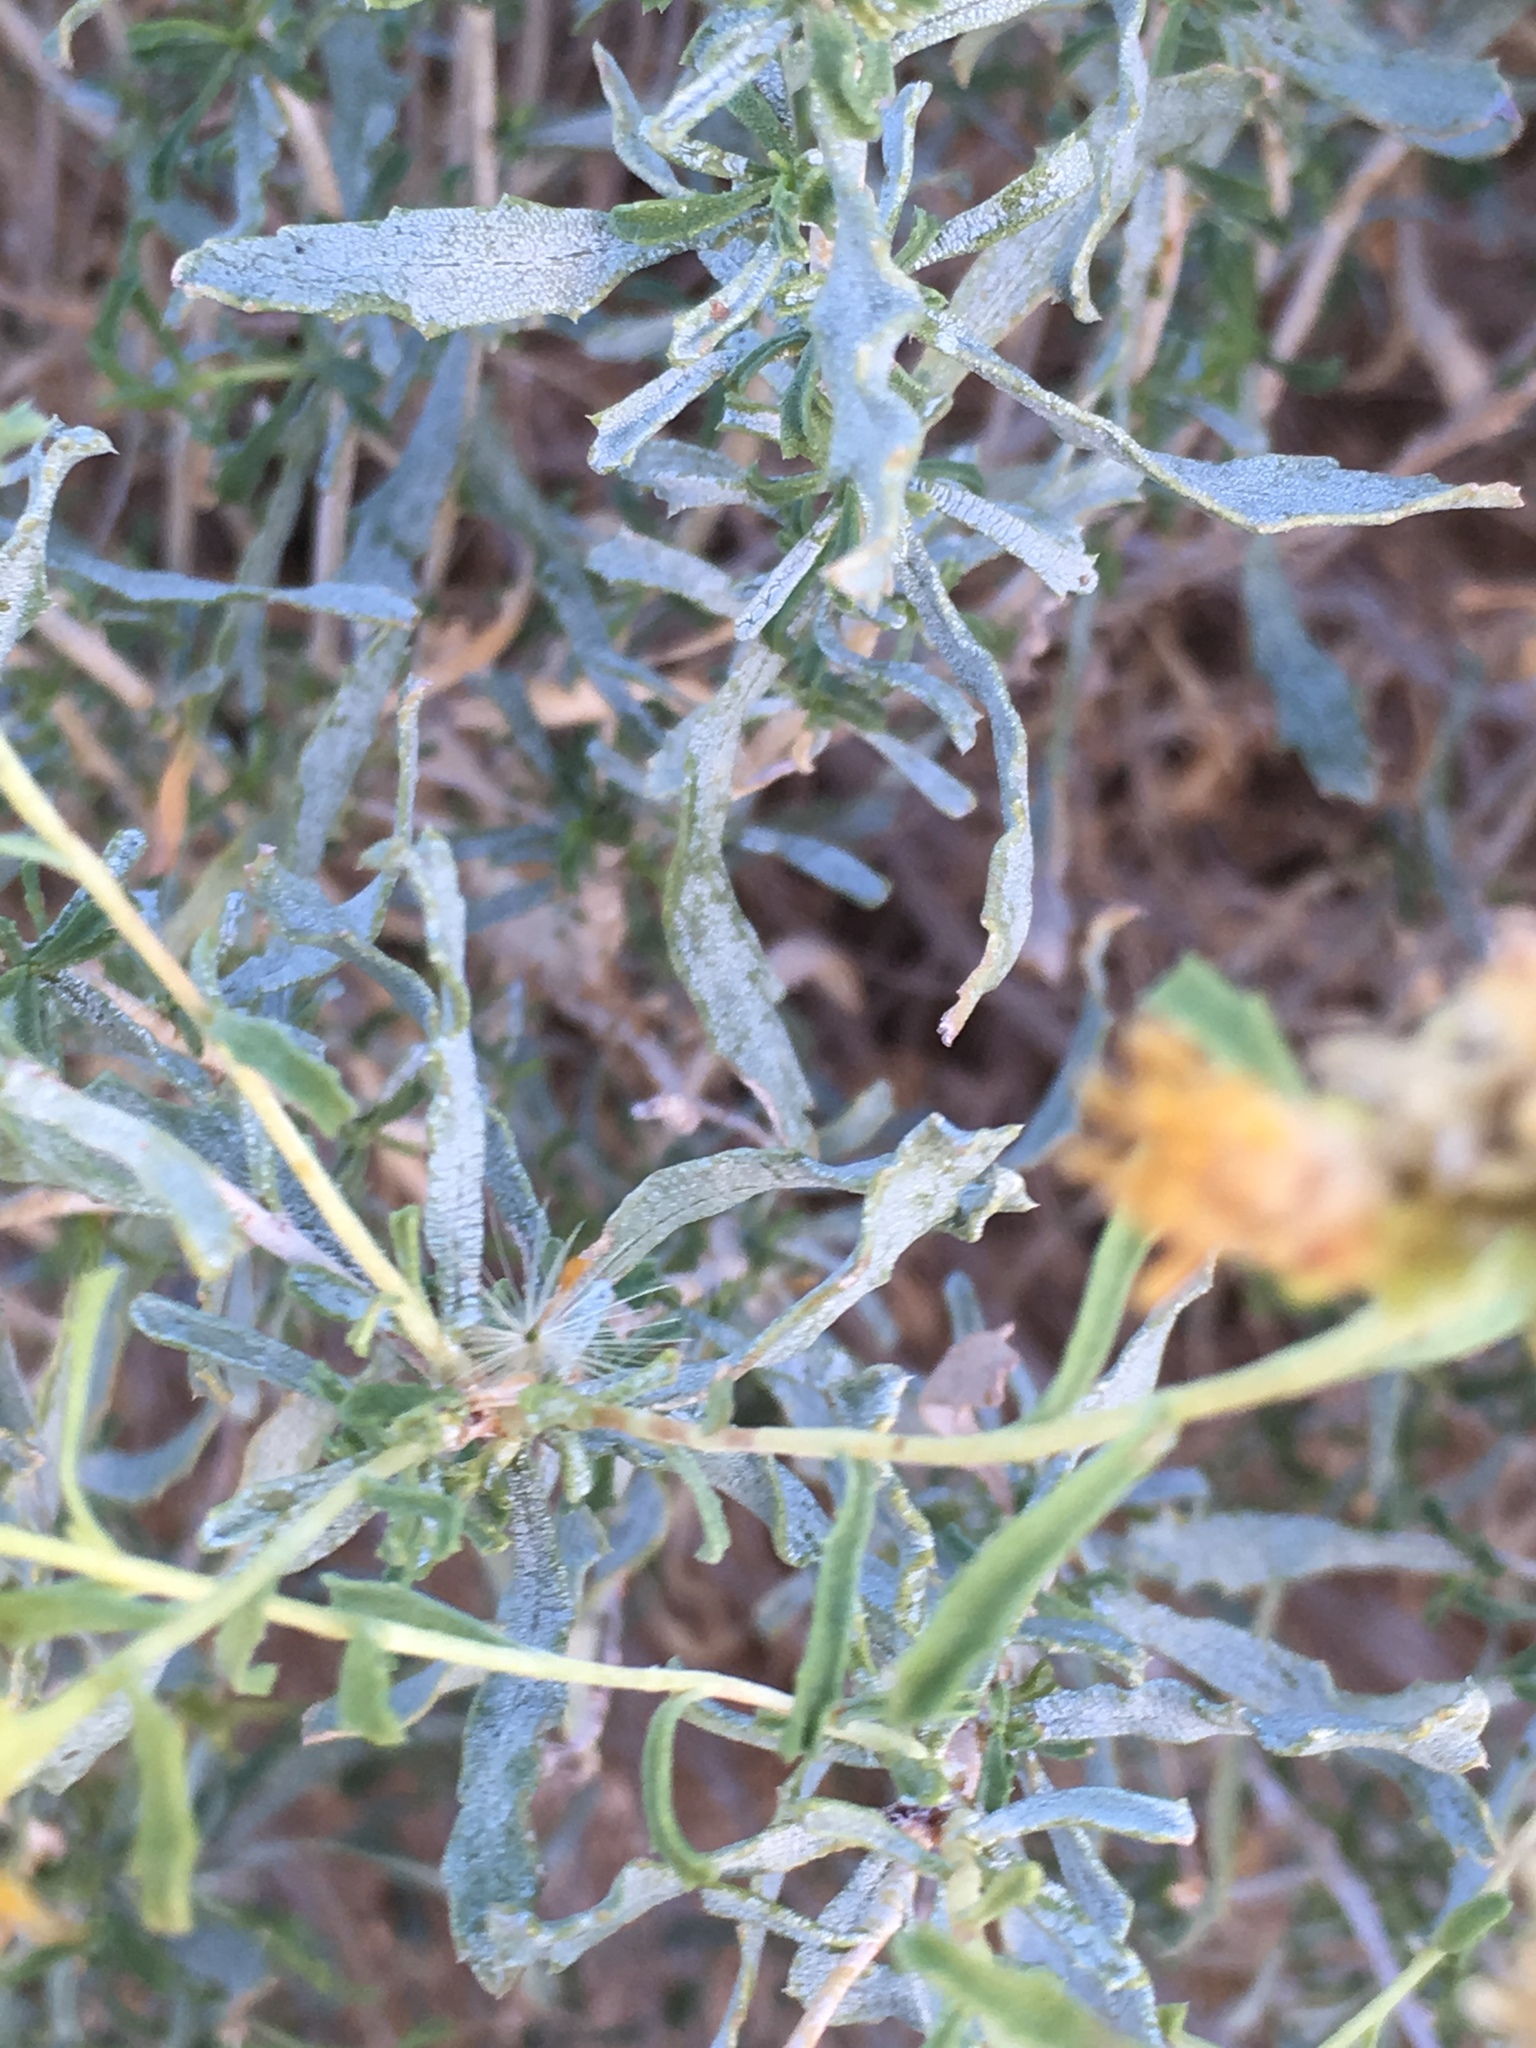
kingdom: Plantae
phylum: Tracheophyta
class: Magnoliopsida
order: Asterales
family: Asteraceae
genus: Isocoma
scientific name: Isocoma acradenia
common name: Alkali jimmyweed
